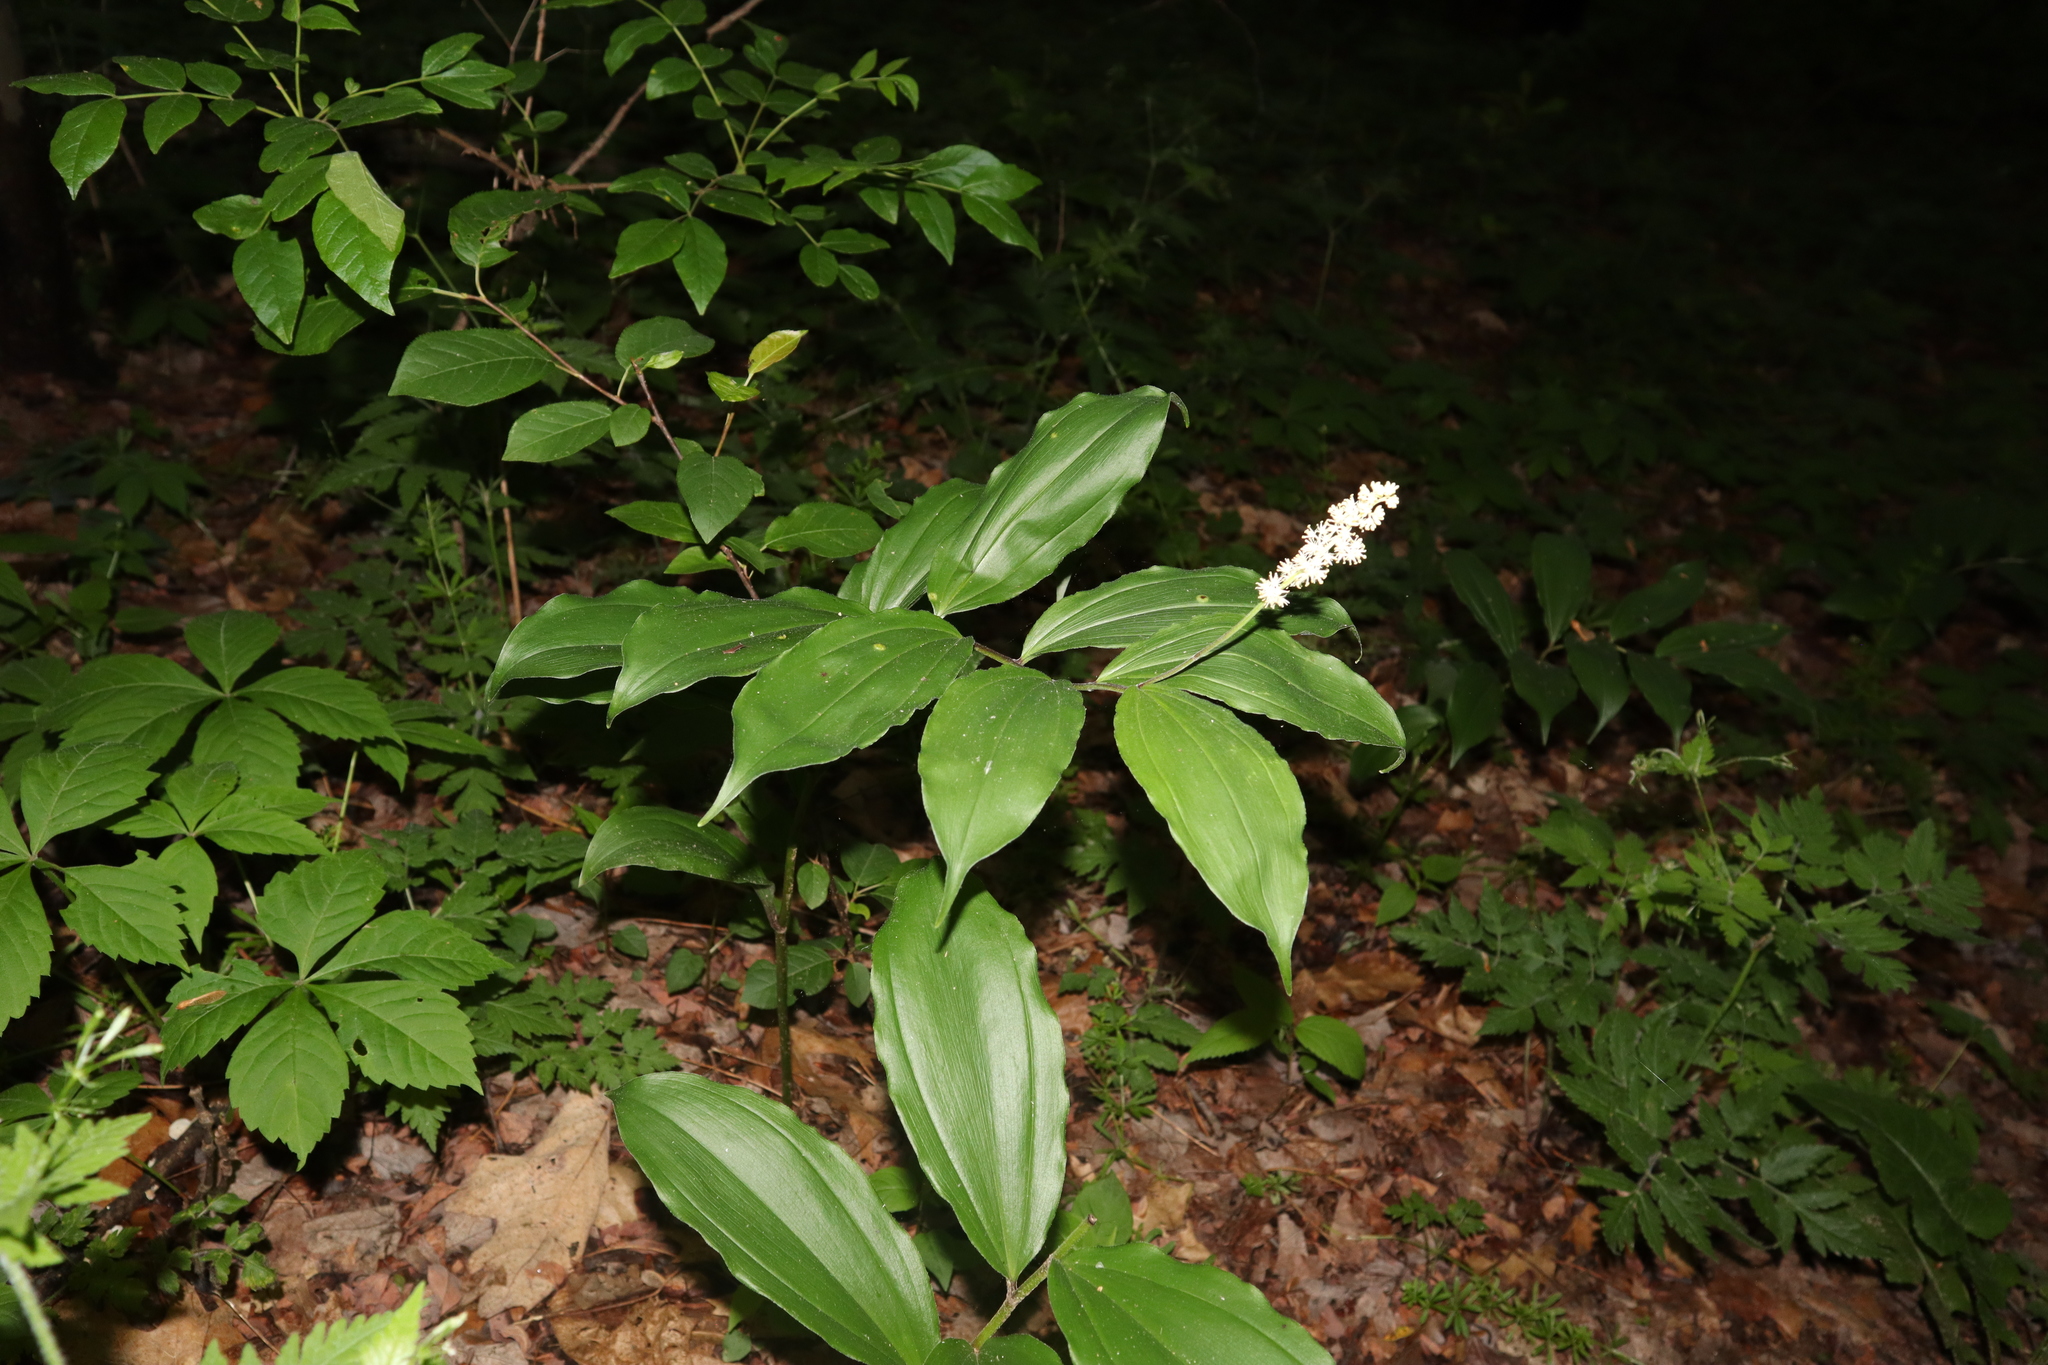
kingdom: Plantae
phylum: Tracheophyta
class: Liliopsida
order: Asparagales
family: Asparagaceae
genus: Maianthemum
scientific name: Maianthemum racemosum
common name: False spikenard
